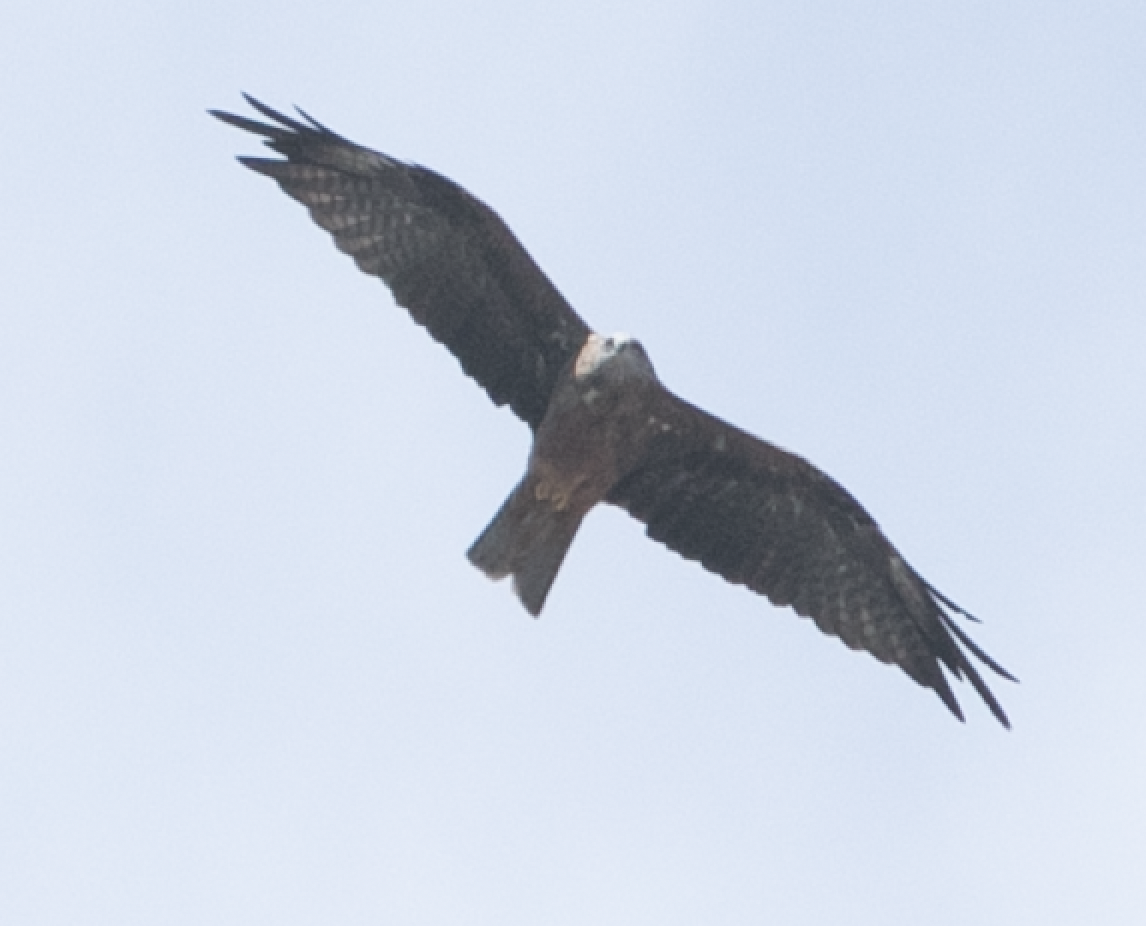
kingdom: Animalia
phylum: Chordata
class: Aves
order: Accipitriformes
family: Accipitridae
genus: Milvus
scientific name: Milvus migrans
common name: Black kite
